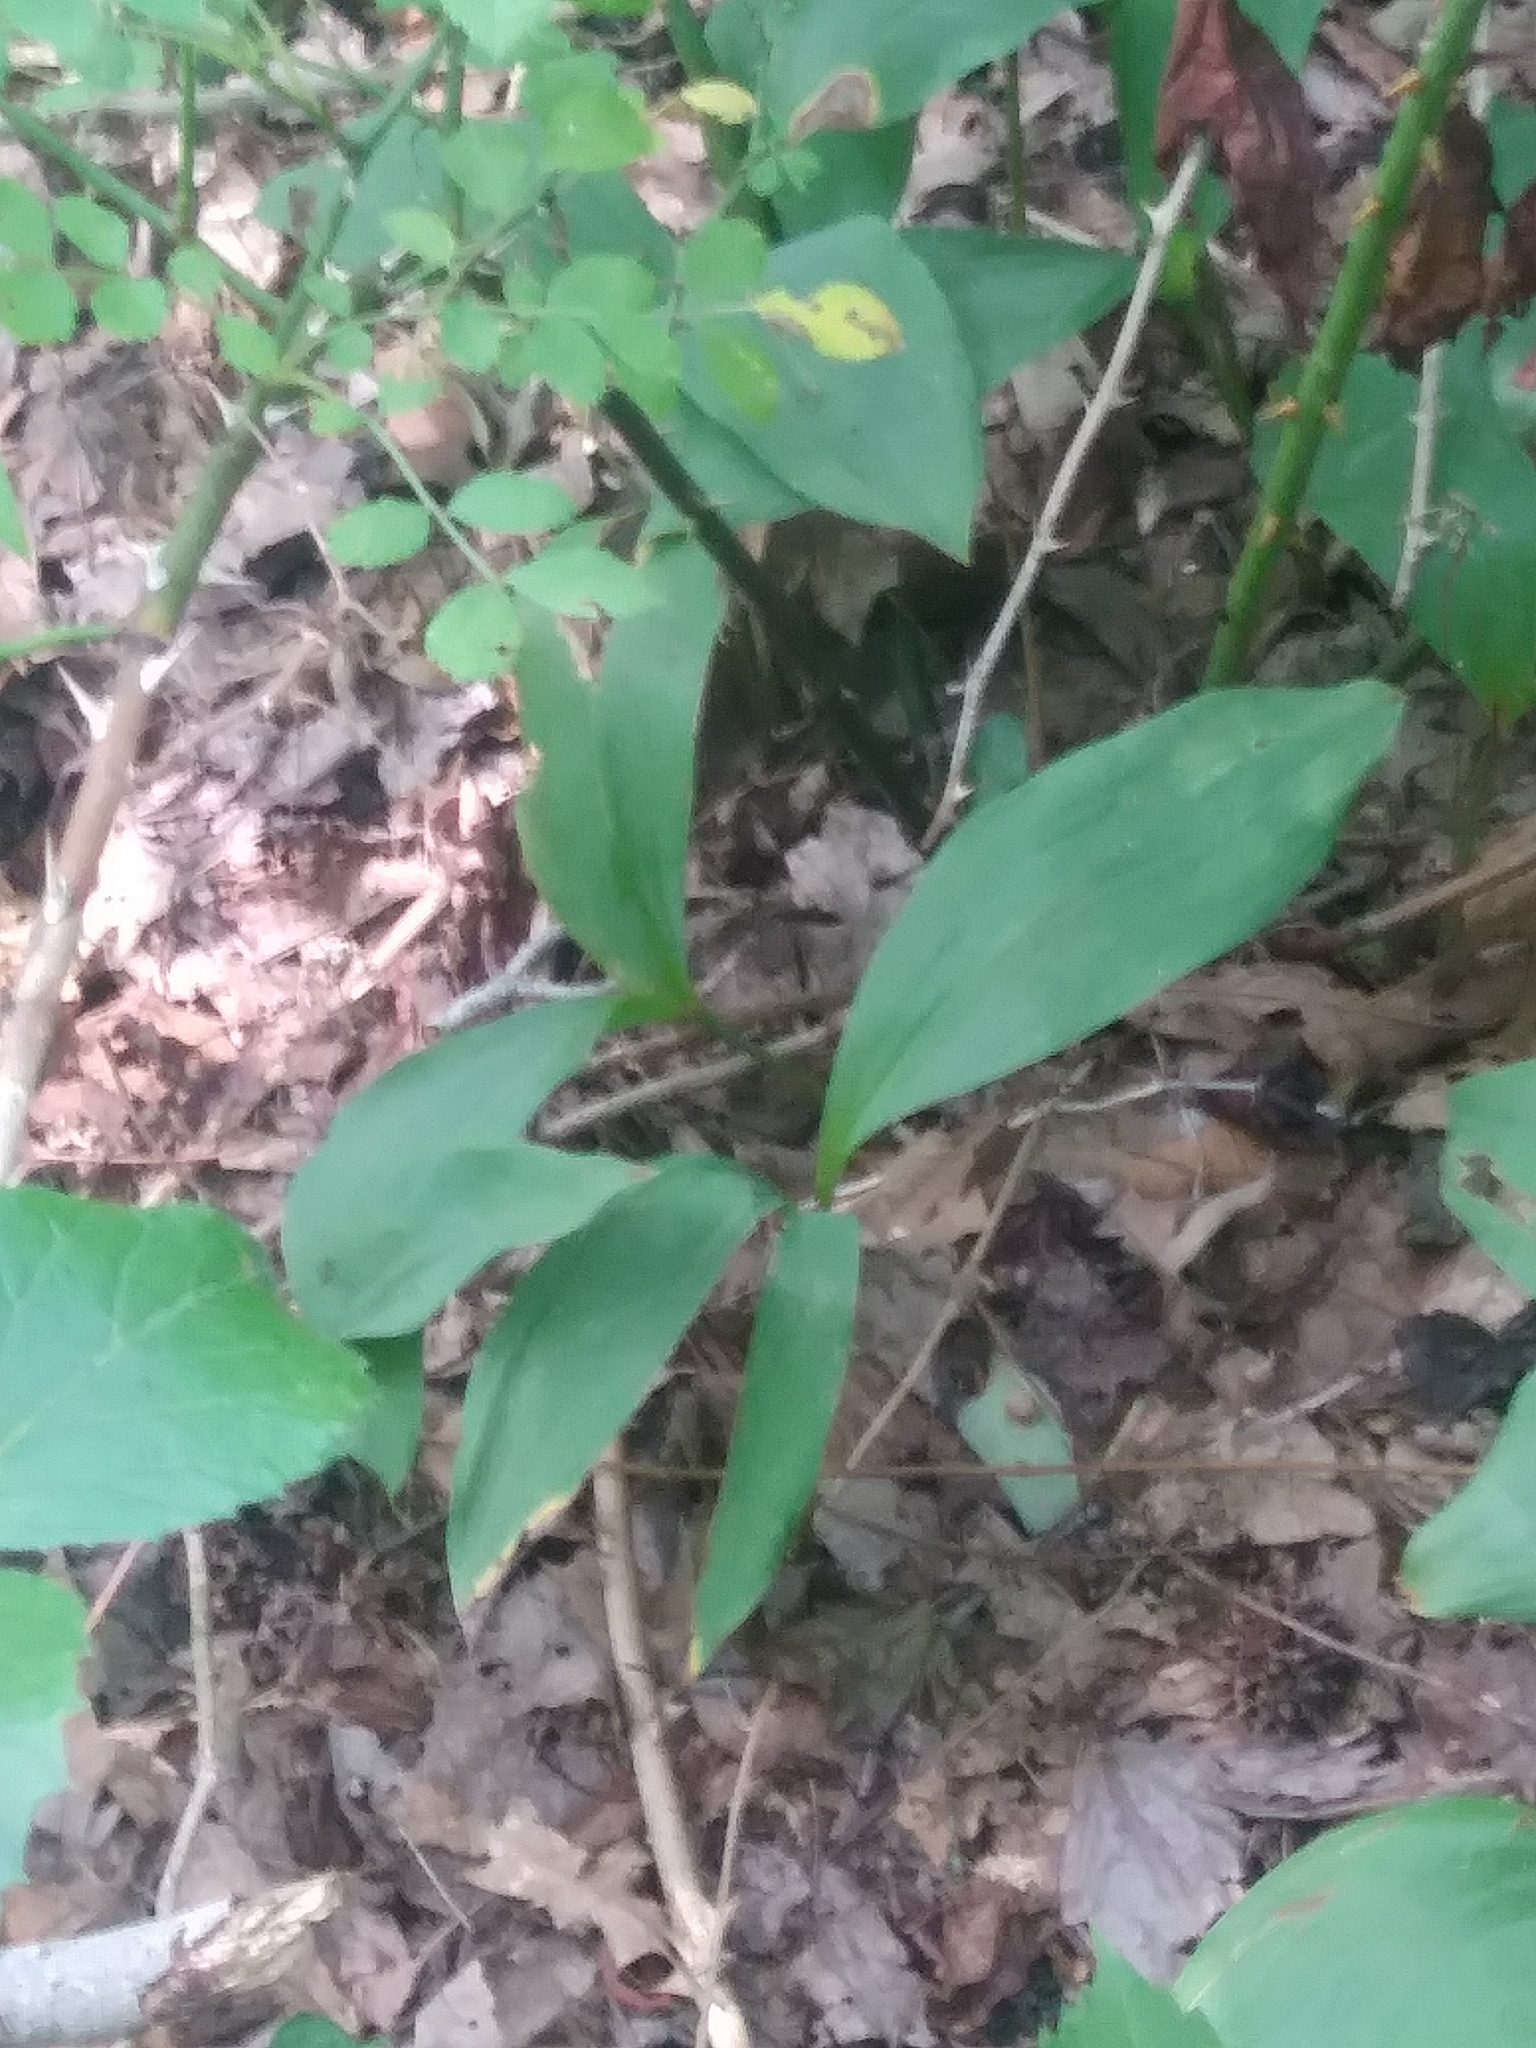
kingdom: Plantae
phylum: Tracheophyta
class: Liliopsida
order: Asparagales
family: Asparagaceae
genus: Convallaria
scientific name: Convallaria majalis
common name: Lily-of-the-valley
